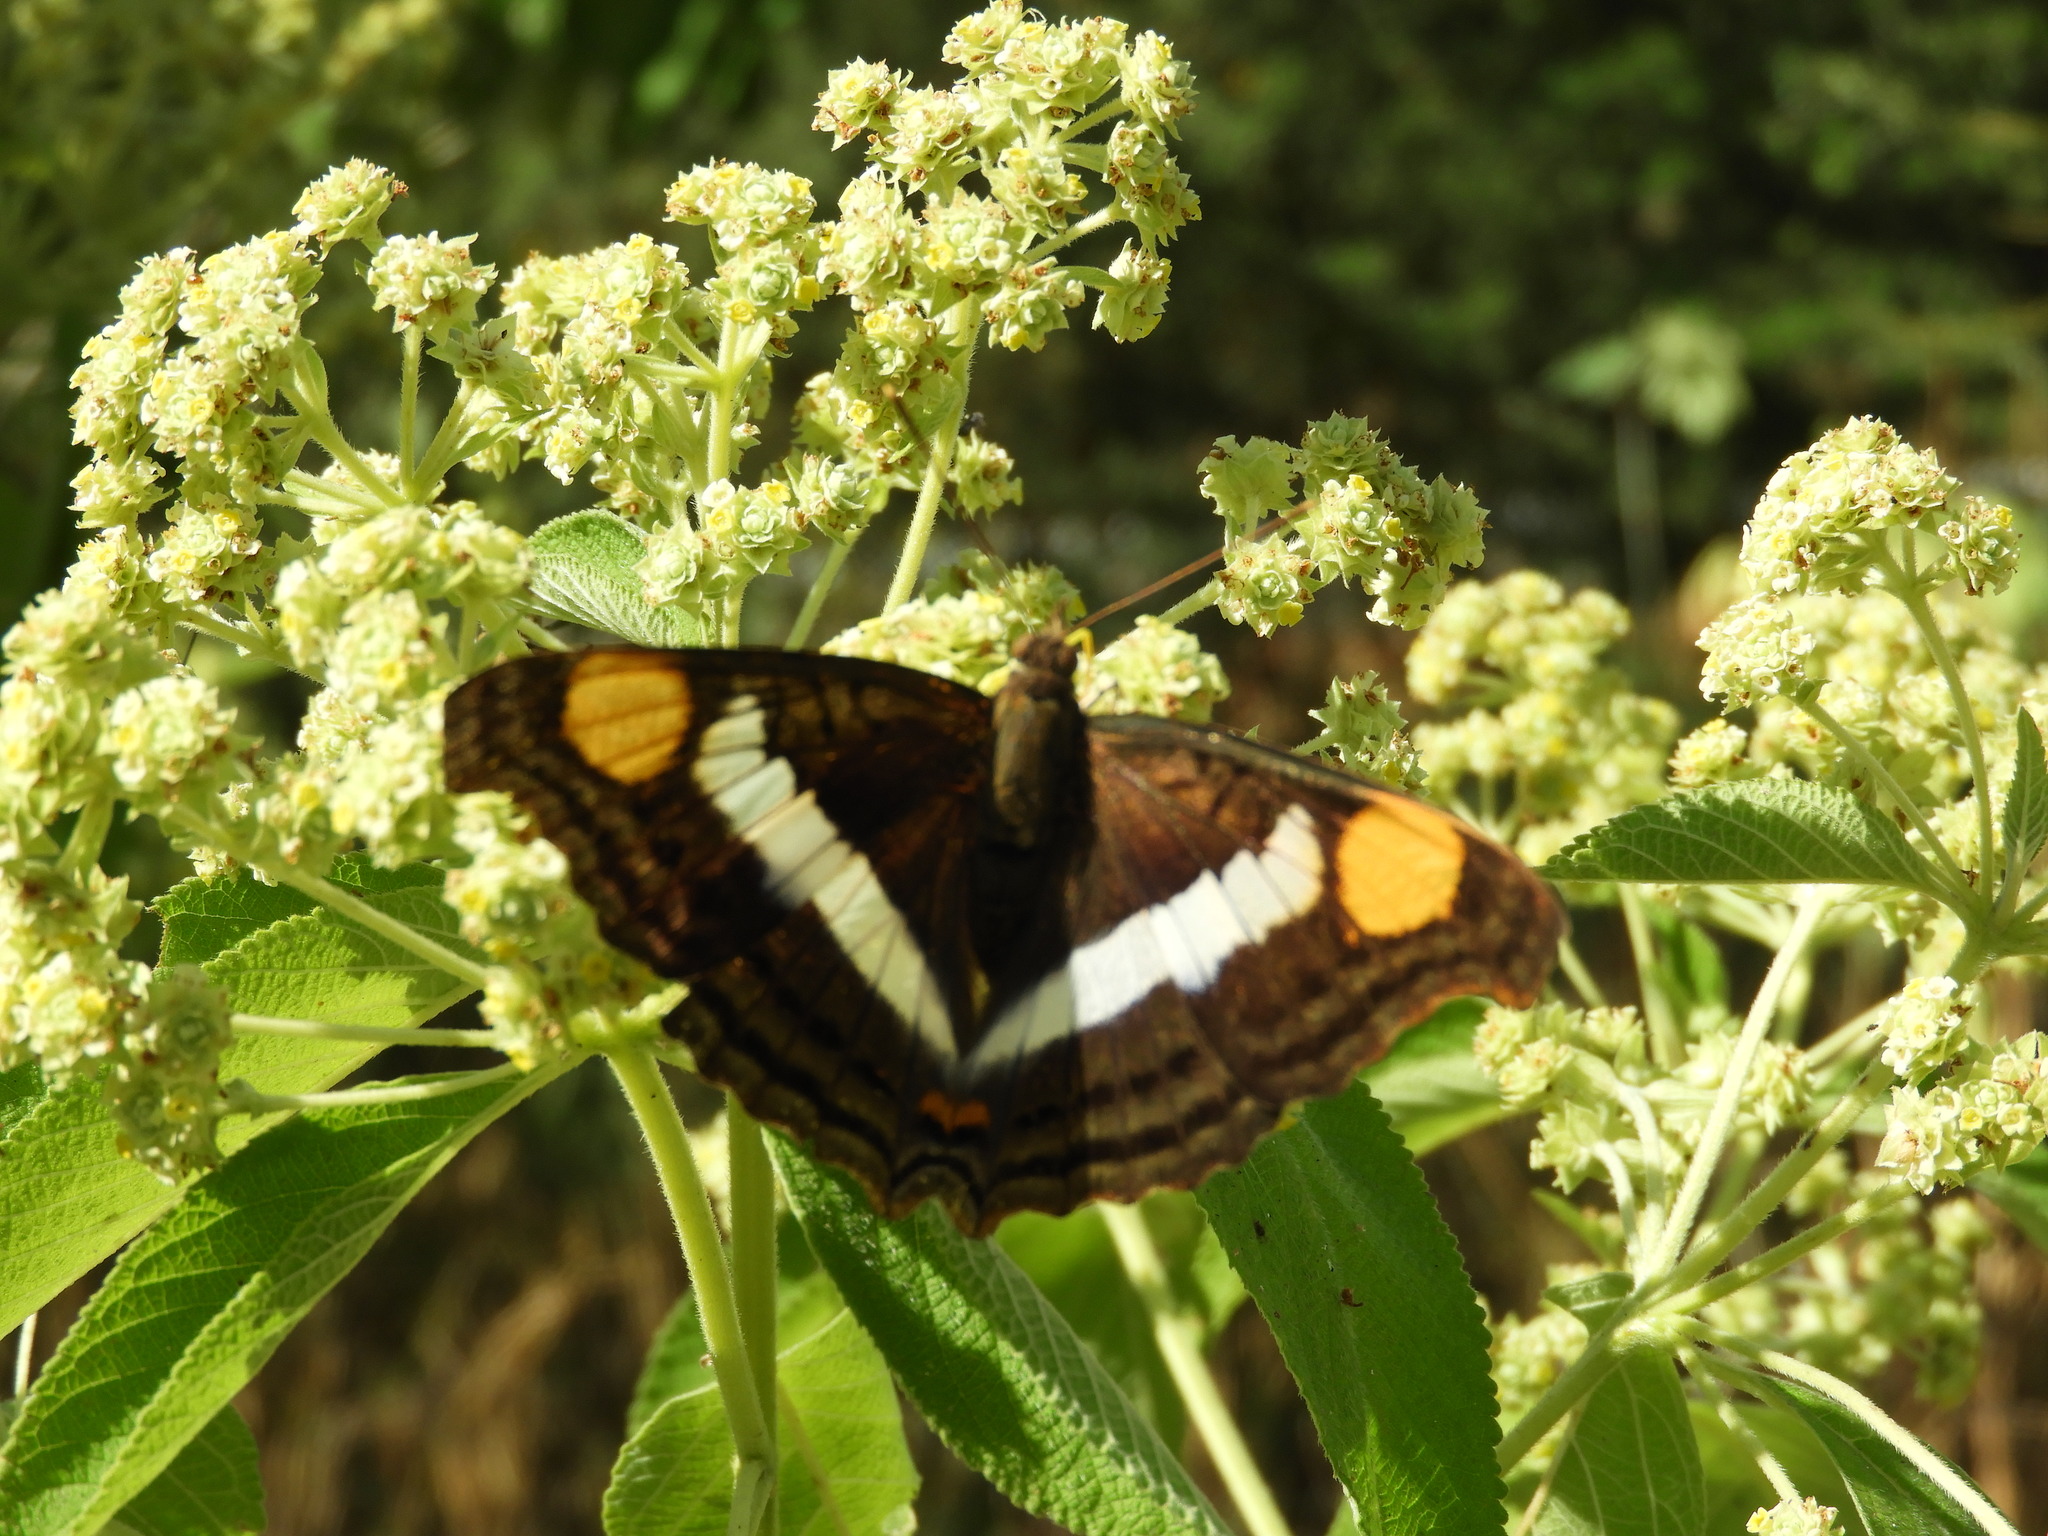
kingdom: Animalia
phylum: Arthropoda
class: Insecta
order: Lepidoptera
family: Nymphalidae
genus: Doxocopa
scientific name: Doxocopa laure
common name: Silver emperor
